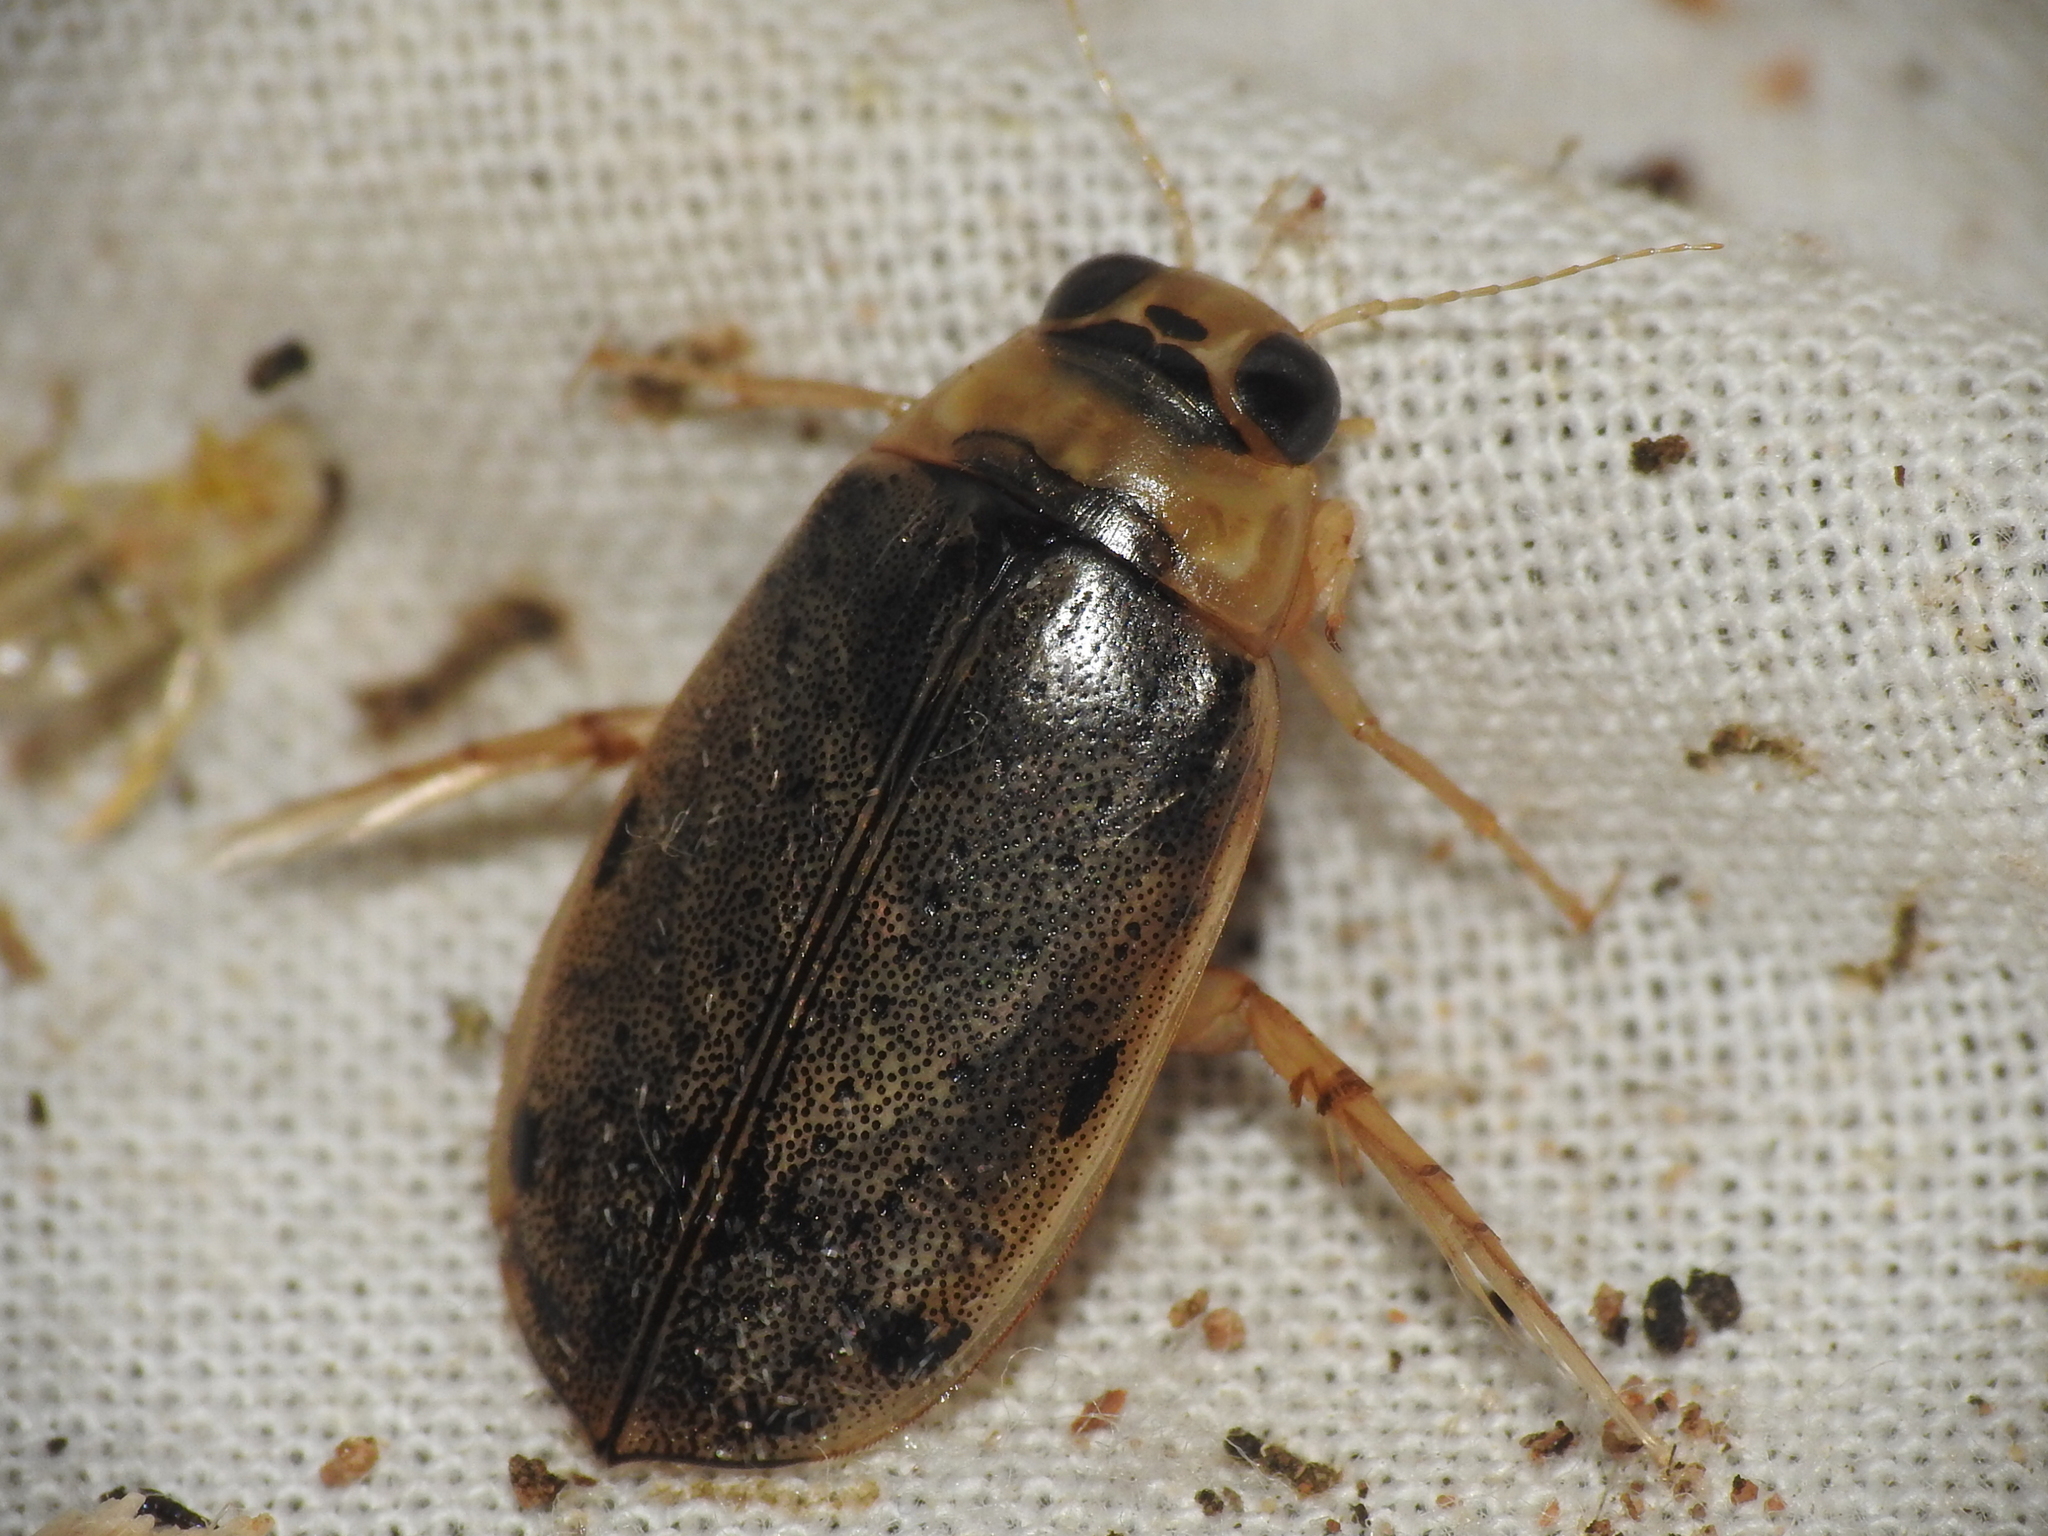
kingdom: Animalia
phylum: Arthropoda
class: Insecta
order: Coleoptera
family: Dytiscidae
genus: Eretes
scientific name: Eretes
